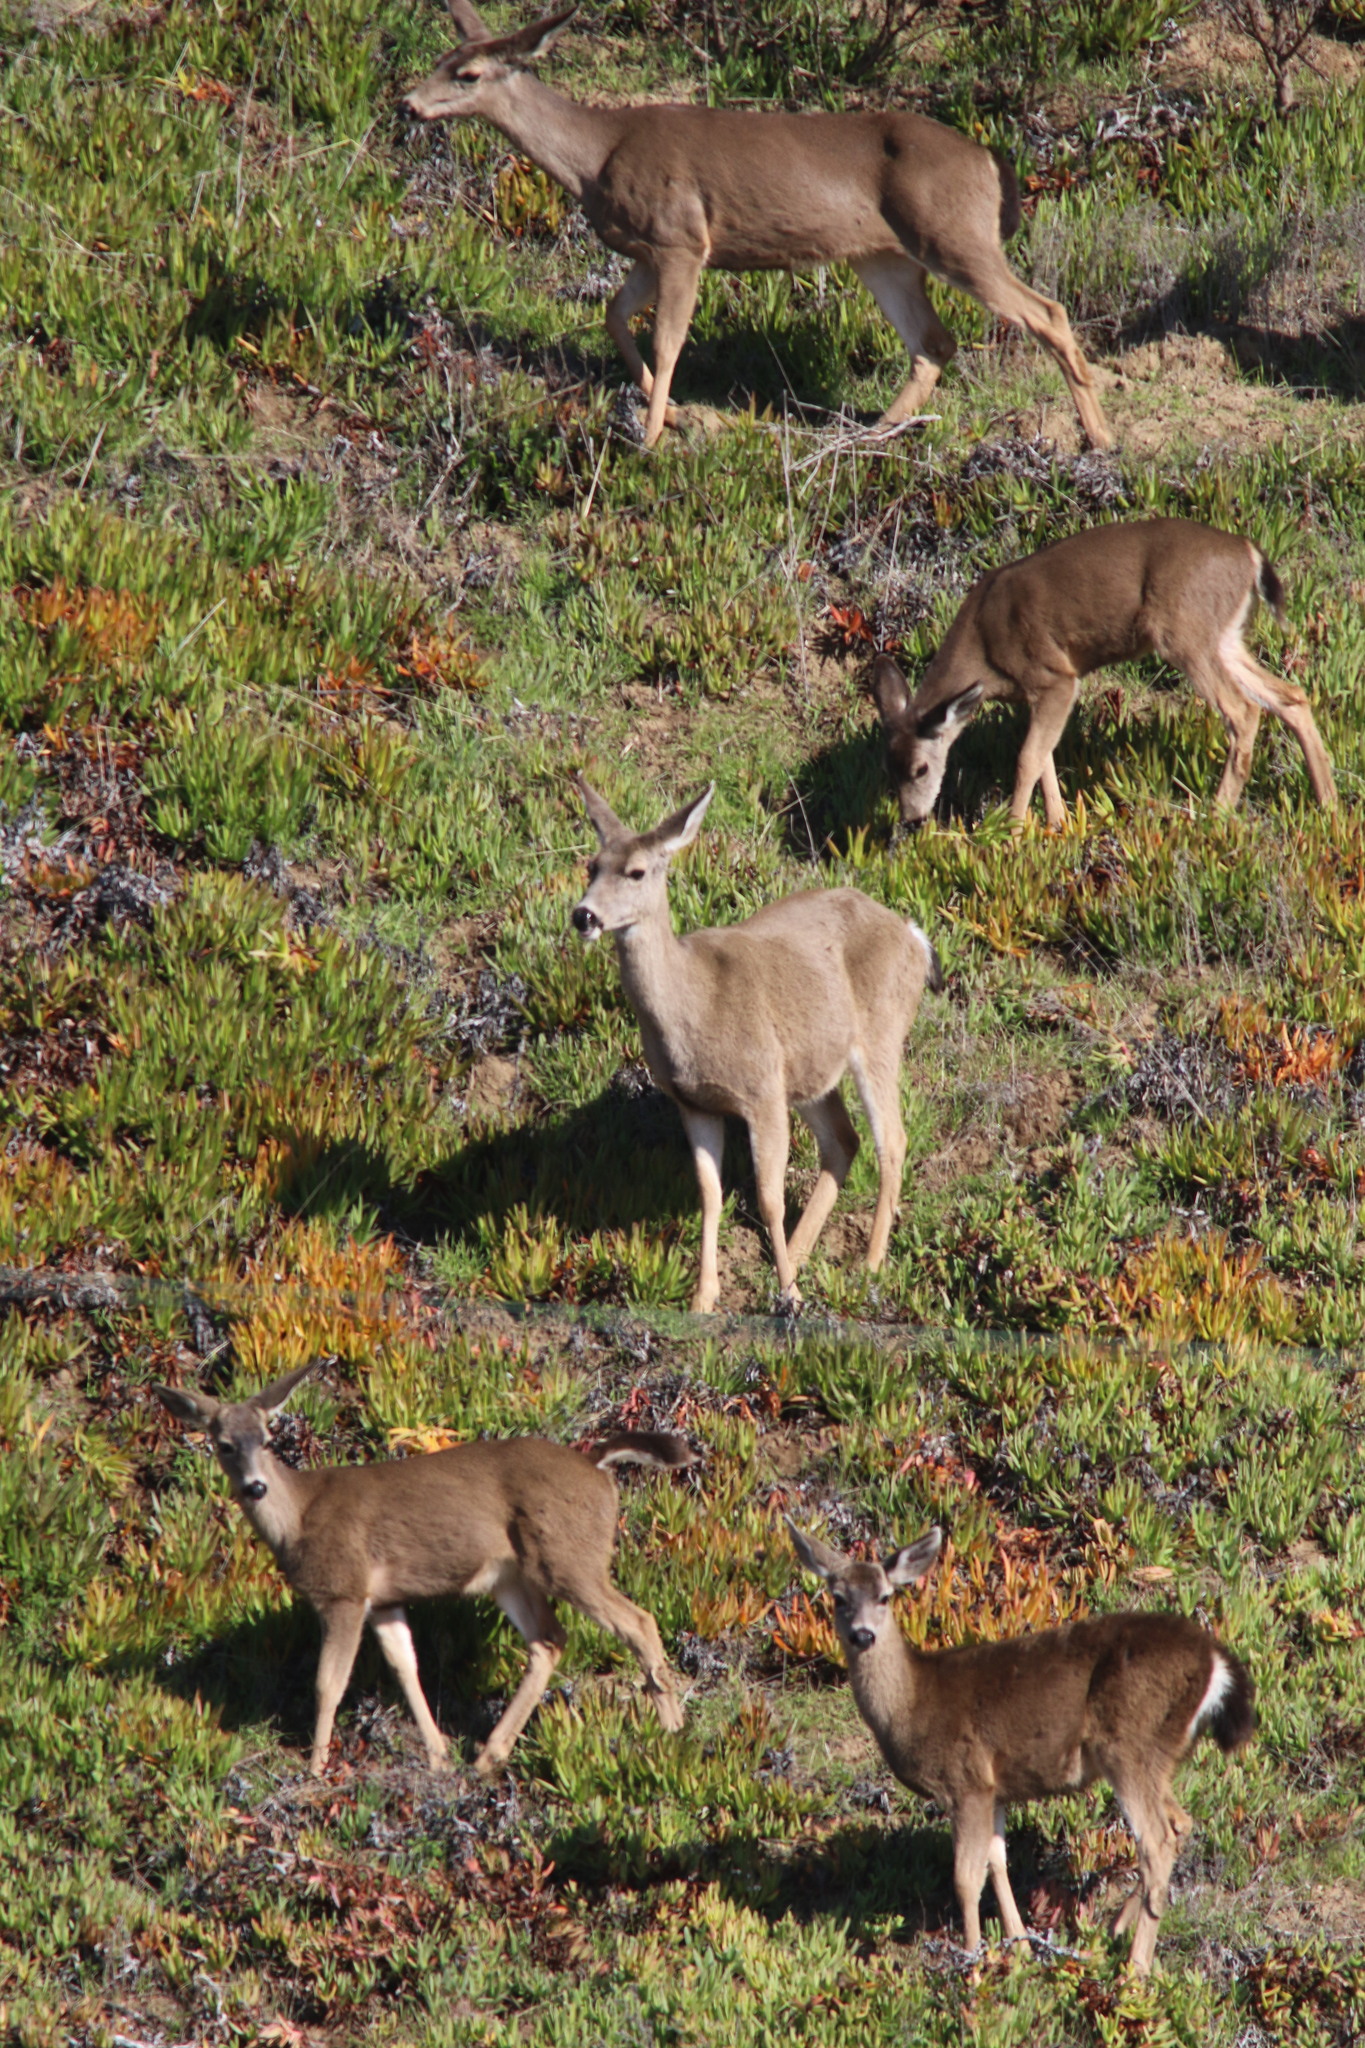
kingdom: Animalia
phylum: Chordata
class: Mammalia
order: Artiodactyla
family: Cervidae
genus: Odocoileus
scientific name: Odocoileus hemionus
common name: Mule deer
